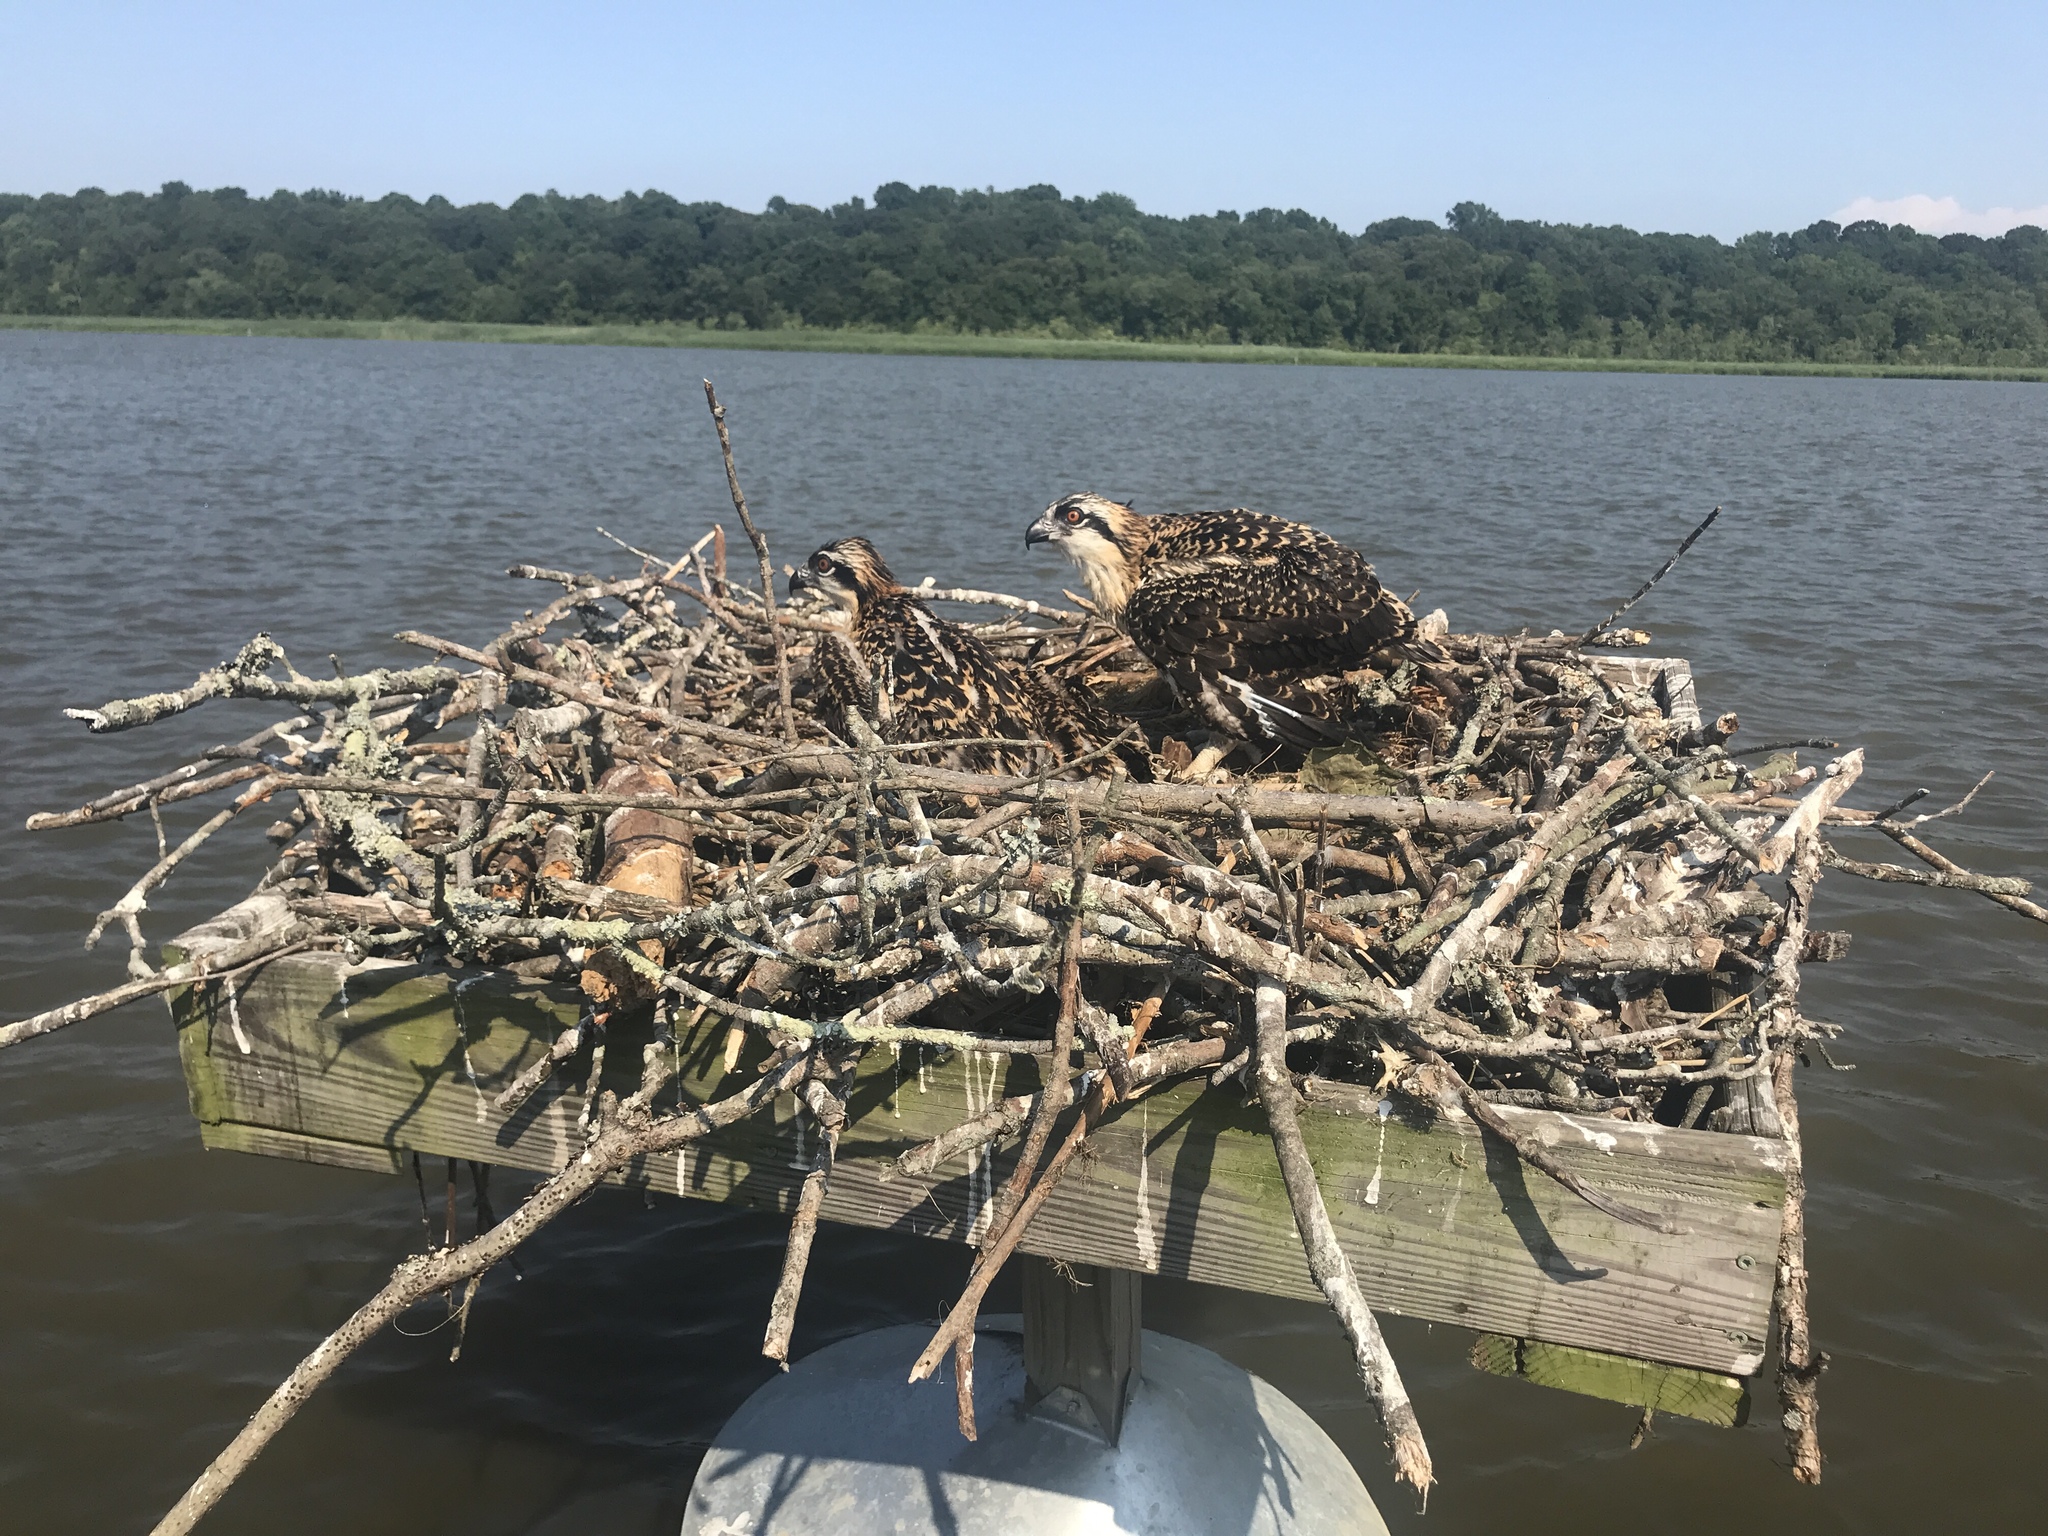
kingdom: Animalia
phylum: Chordata
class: Aves
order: Accipitriformes
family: Pandionidae
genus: Pandion
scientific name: Pandion haliaetus
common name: Osprey
